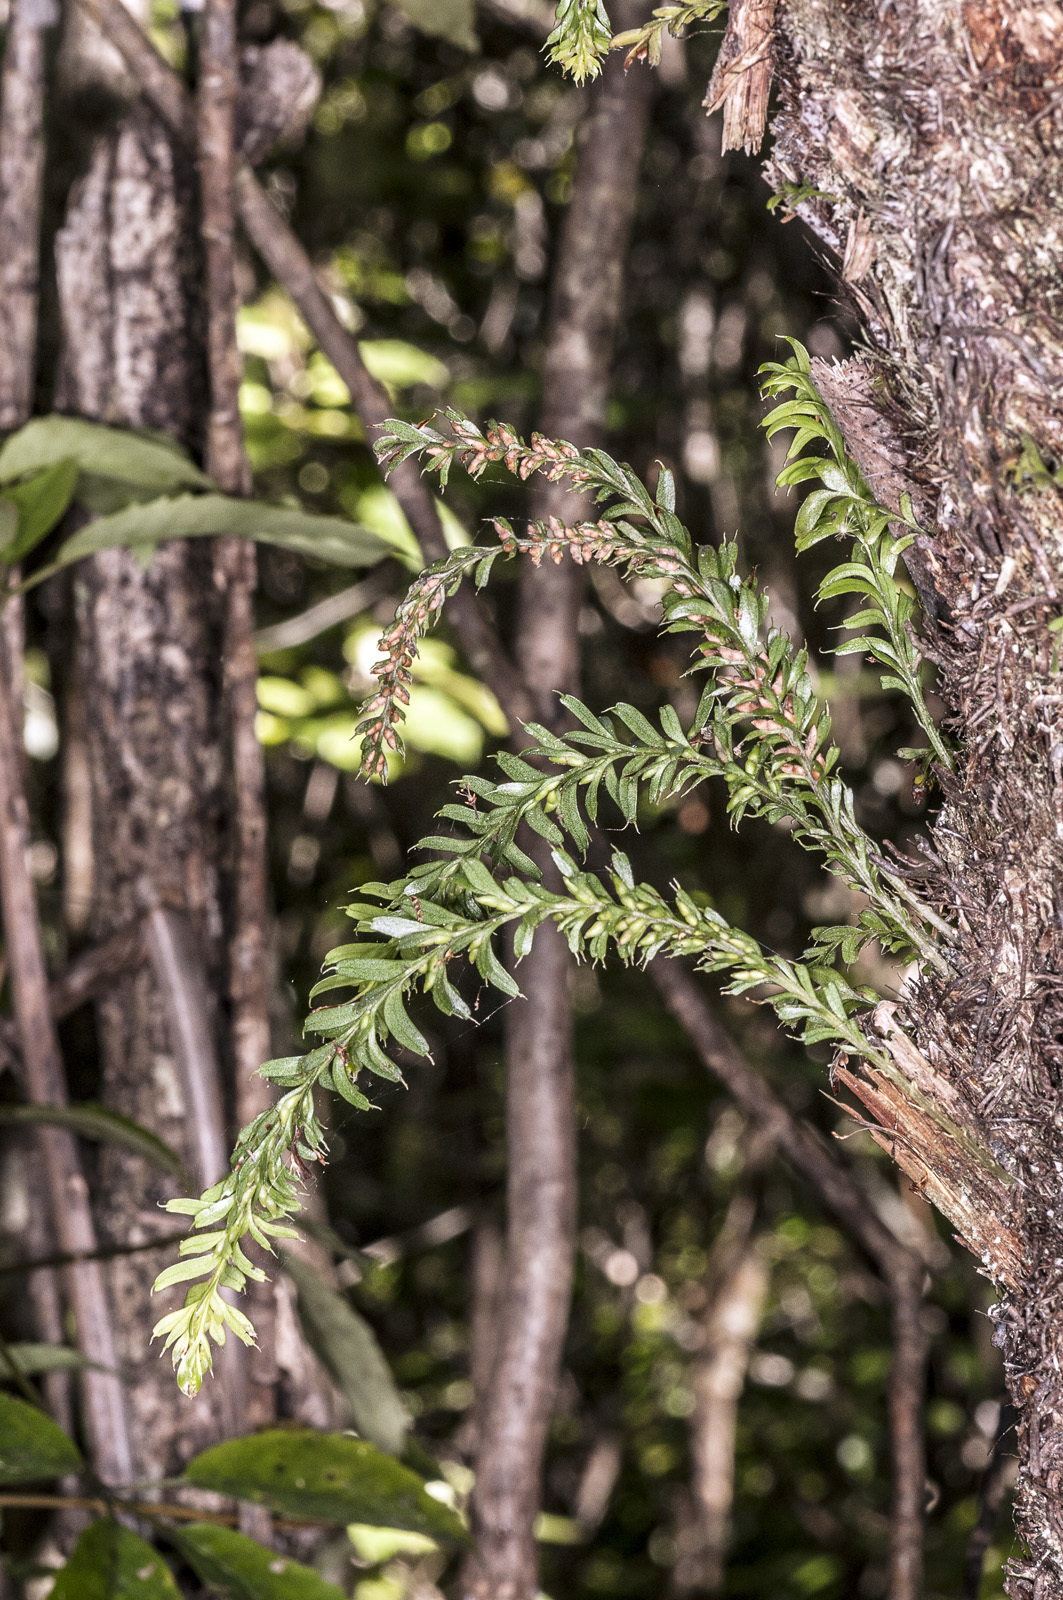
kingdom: Plantae
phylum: Tracheophyta
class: Polypodiopsida
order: Psilotales
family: Psilotaceae
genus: Tmesipteris
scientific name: Tmesipteris tannensis
